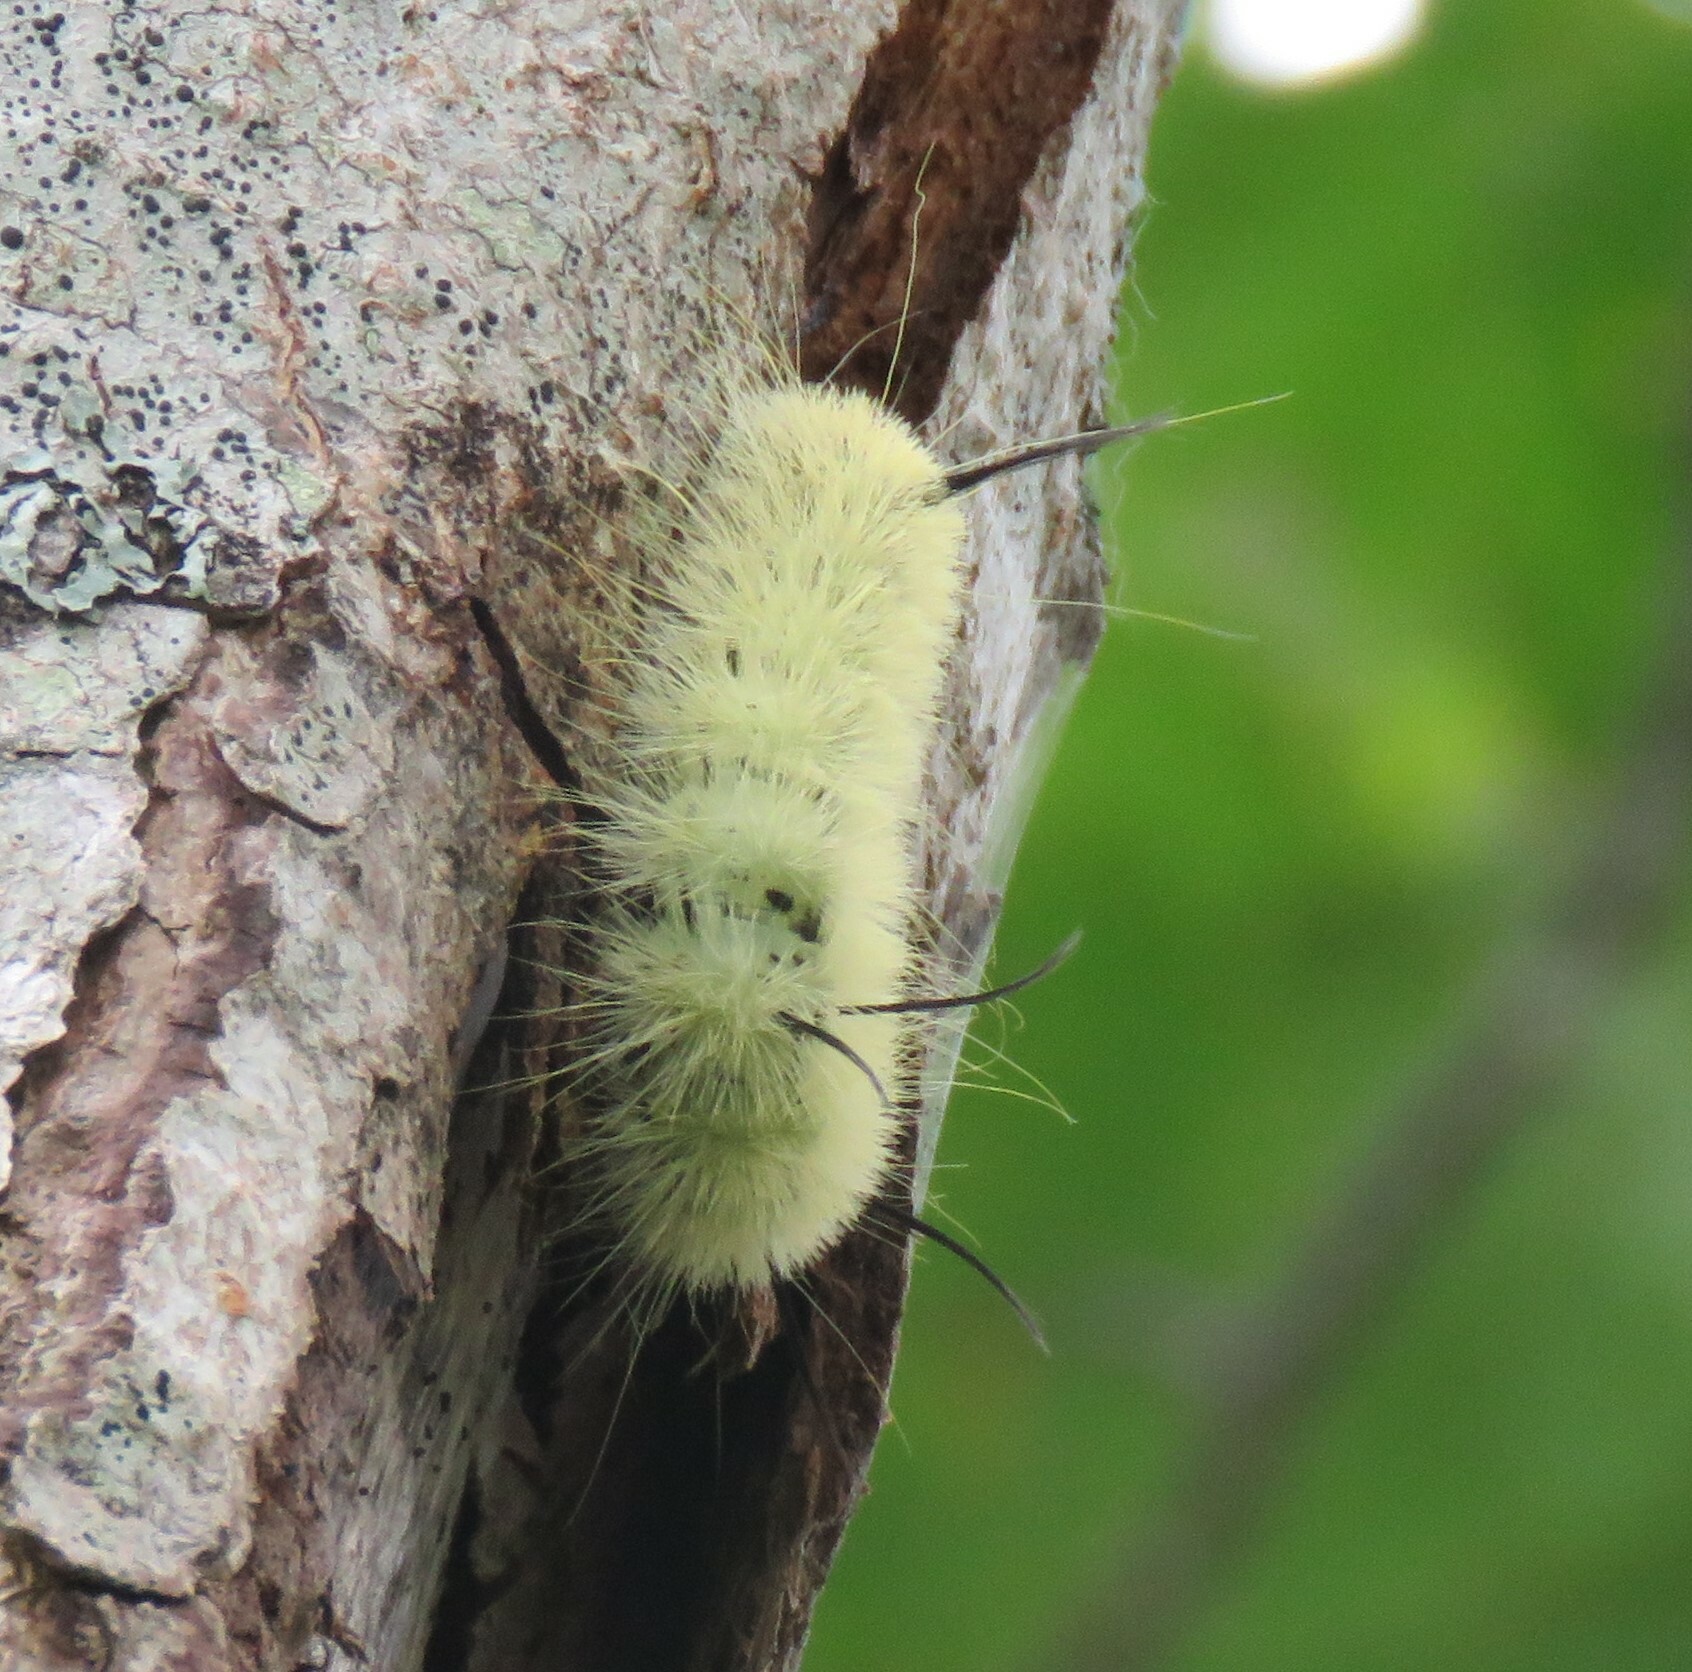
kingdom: Animalia
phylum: Arthropoda
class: Insecta
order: Lepidoptera
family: Noctuidae
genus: Acronicta
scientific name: Acronicta americana
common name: American dagger
